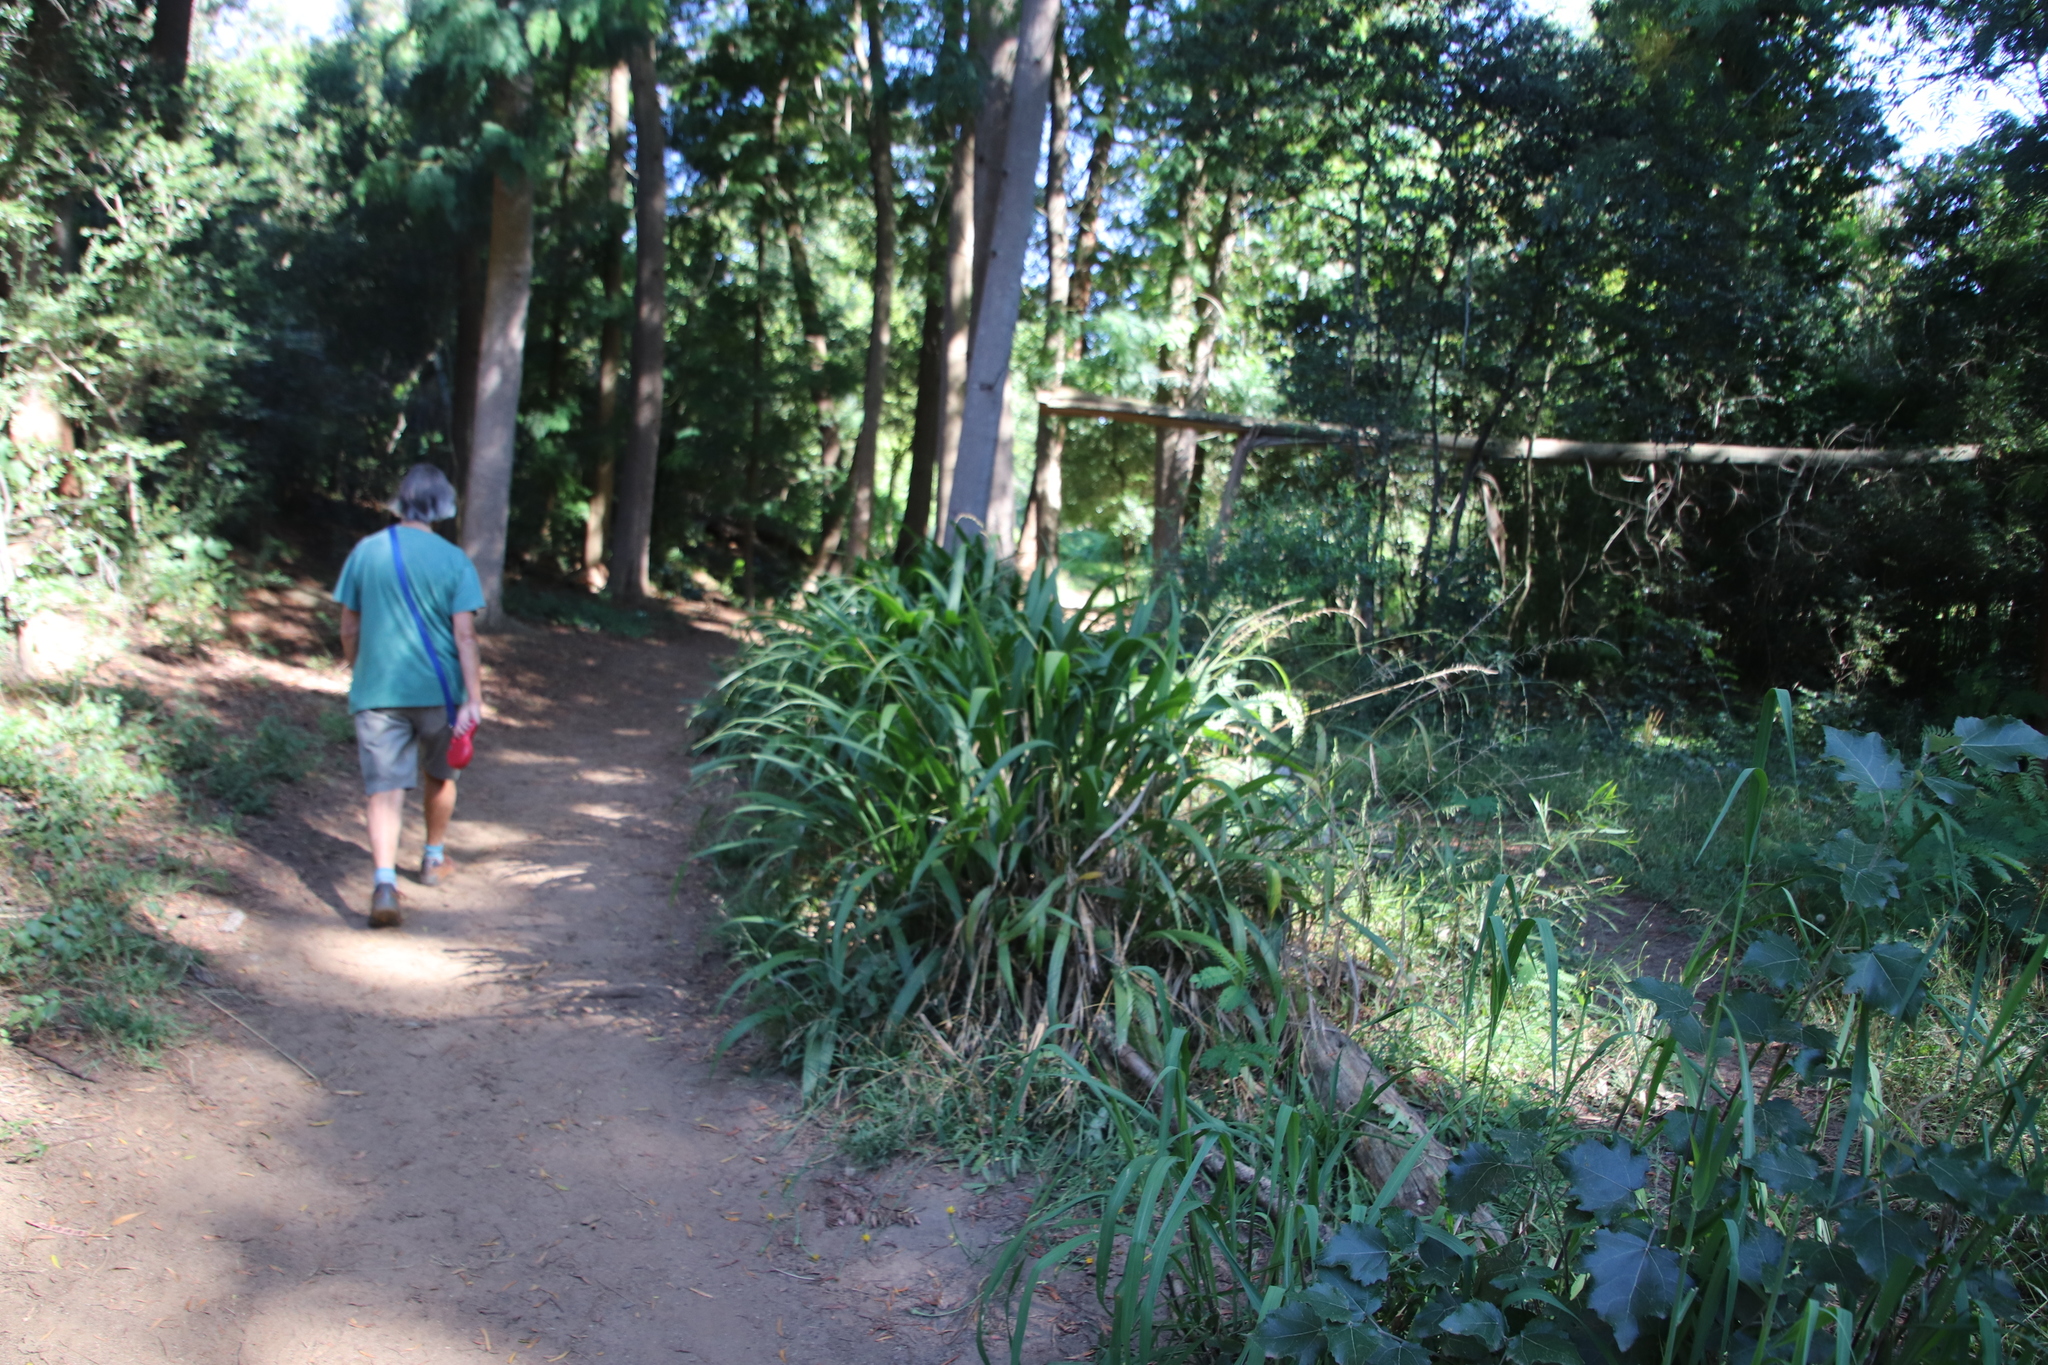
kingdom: Plantae
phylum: Tracheophyta
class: Liliopsida
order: Poales
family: Poaceae
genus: Setaria
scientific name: Setaria megaphylla
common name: Bigleaf bristlegrass
